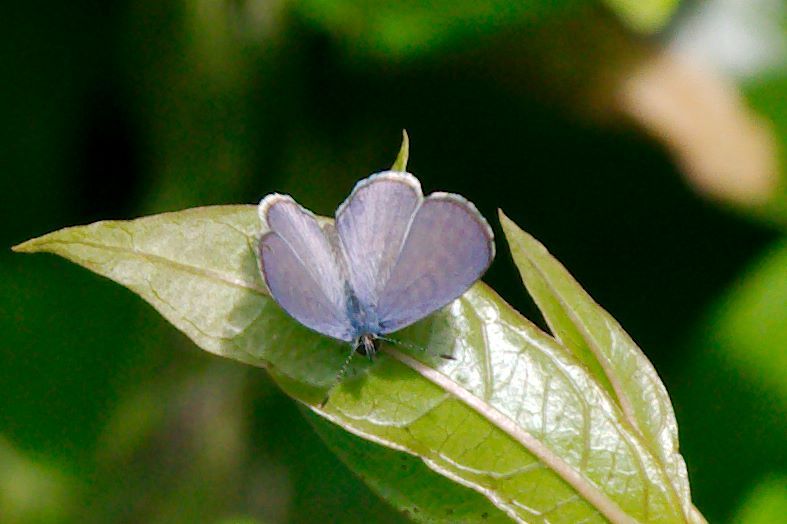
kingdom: Animalia
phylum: Arthropoda
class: Insecta
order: Lepidoptera
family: Lycaenidae
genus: Leptotes
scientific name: Leptotes cassius
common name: Cassius blue
